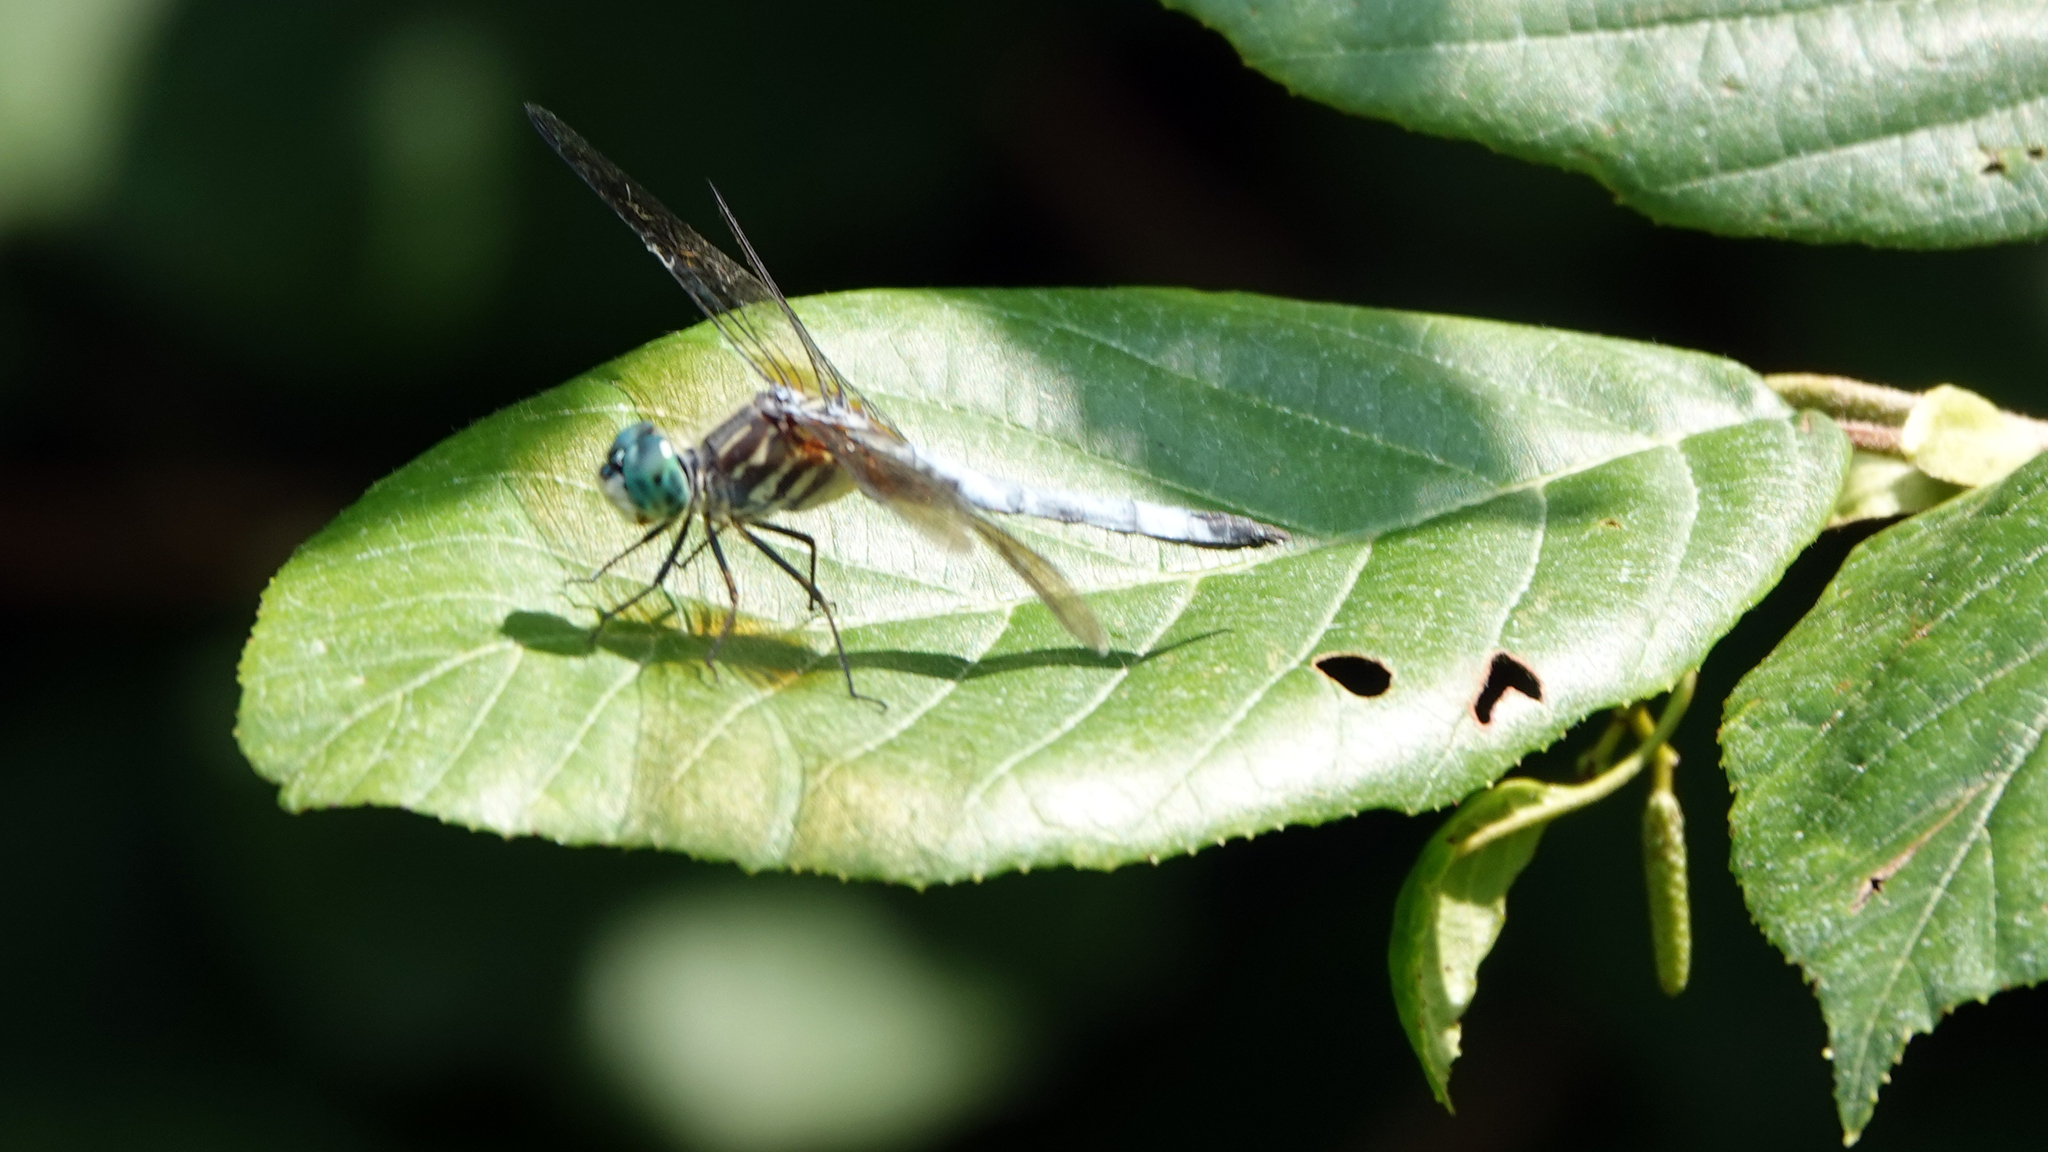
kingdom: Animalia
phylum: Arthropoda
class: Insecta
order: Odonata
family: Libellulidae
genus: Pachydiplax
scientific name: Pachydiplax longipennis
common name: Blue dasher
